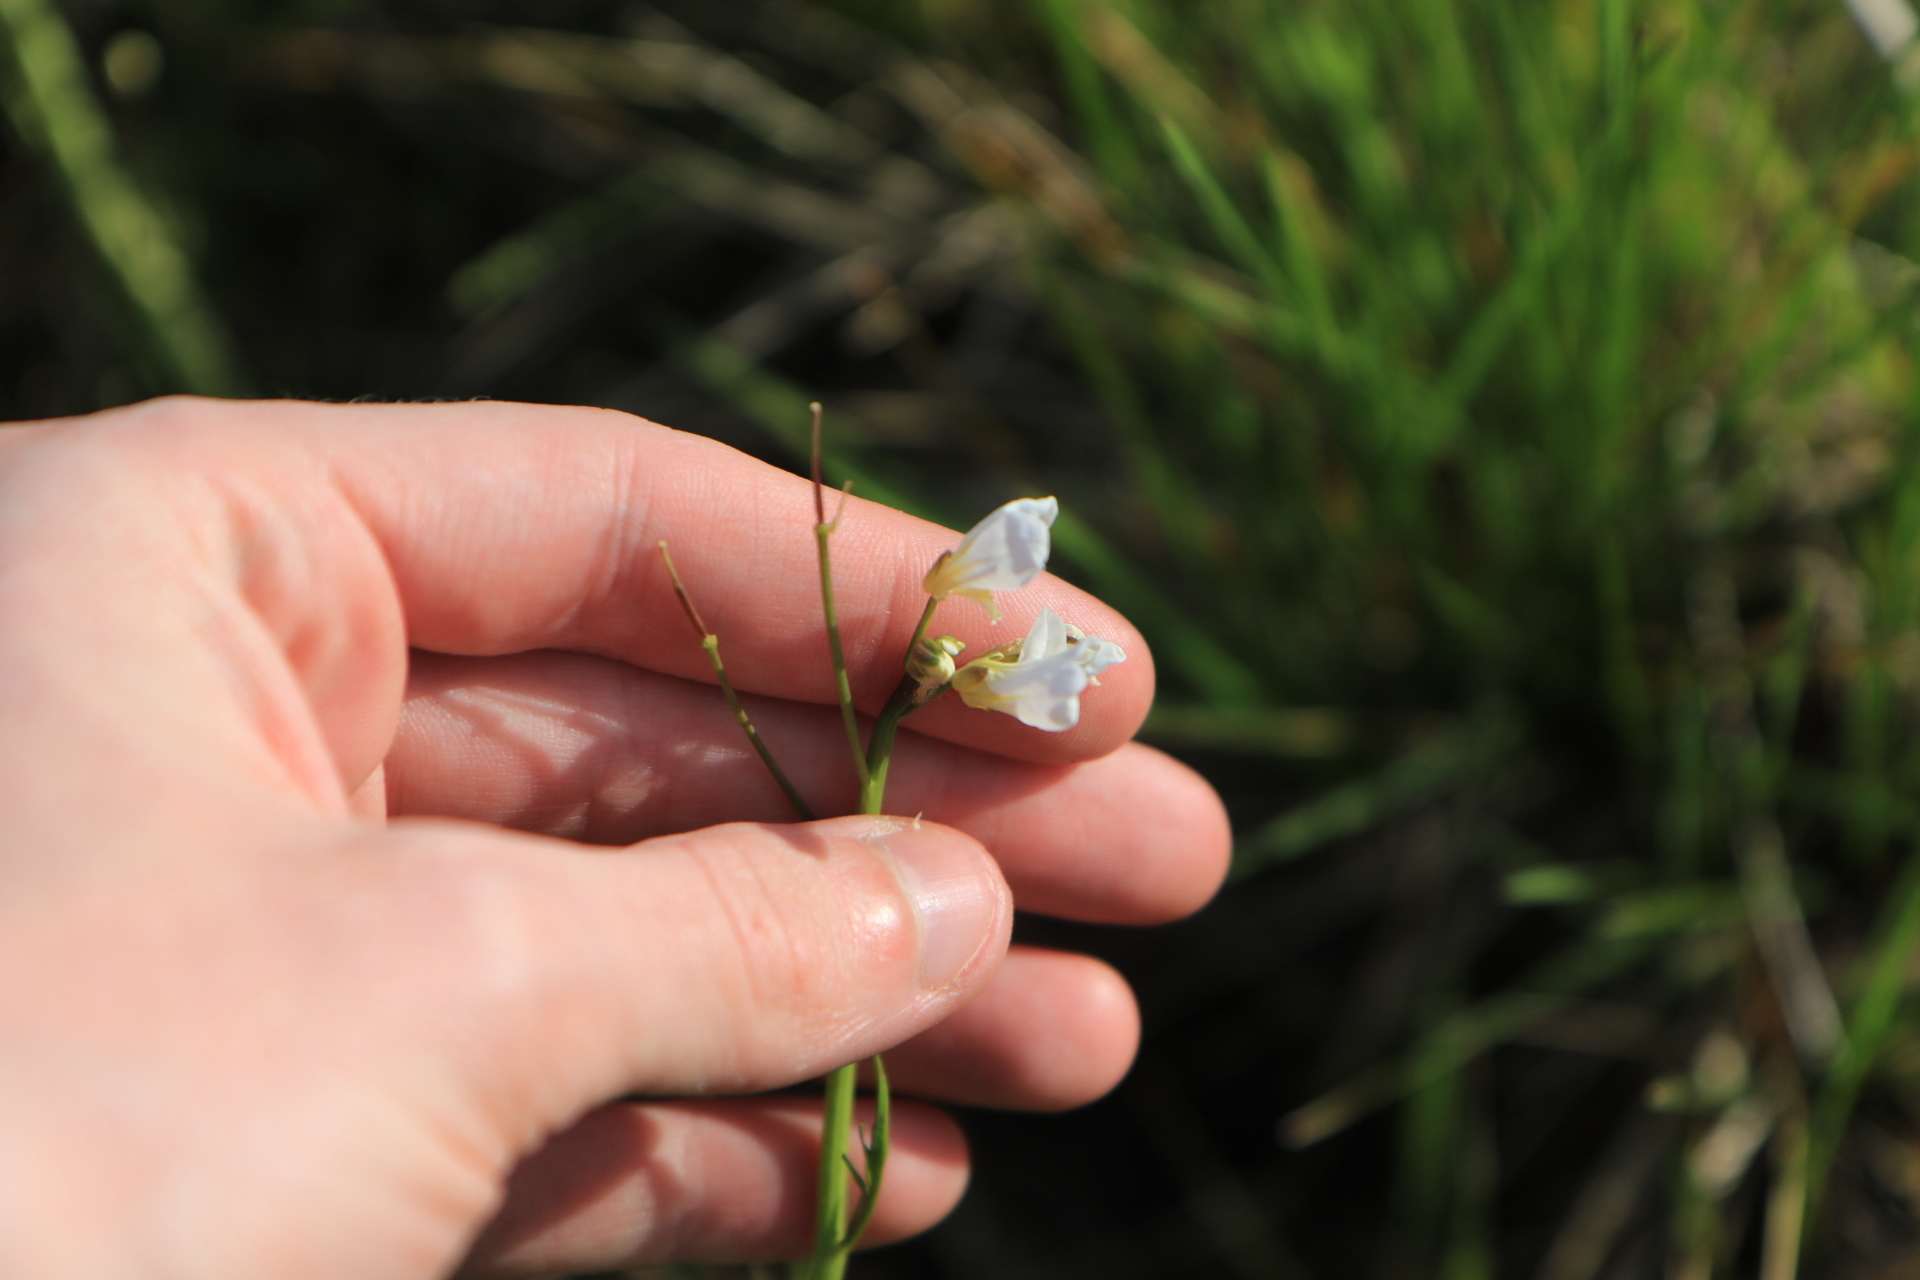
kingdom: Plantae
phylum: Tracheophyta
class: Magnoliopsida
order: Brassicales
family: Brassicaceae
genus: Cardamine
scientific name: Cardamine penduliflora
